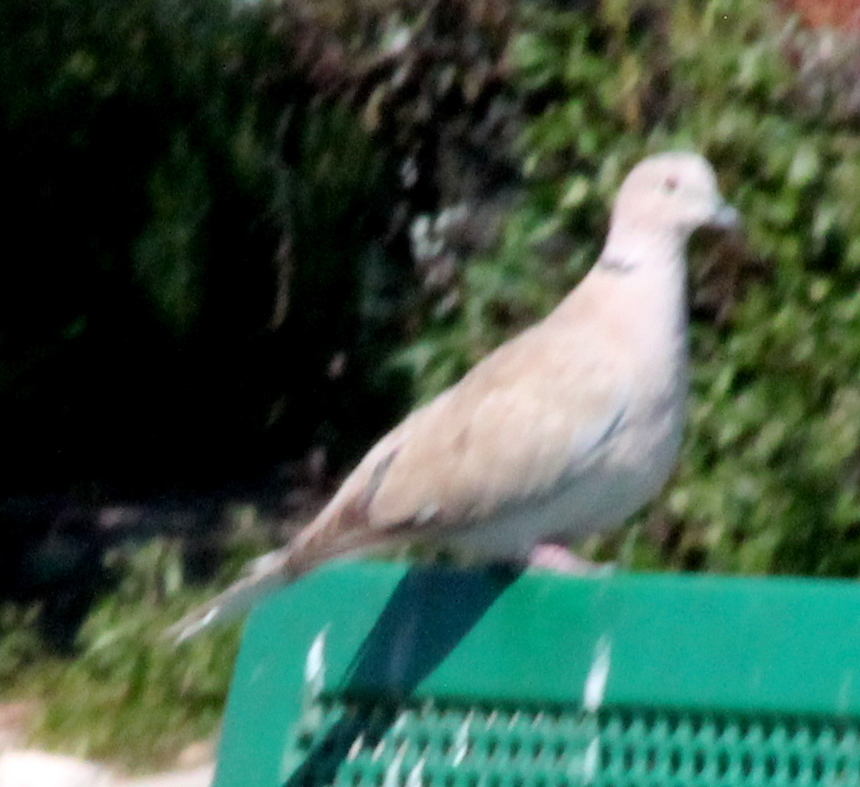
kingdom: Animalia
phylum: Chordata
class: Aves
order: Columbiformes
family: Columbidae
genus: Streptopelia
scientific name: Streptopelia decaocto
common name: Eurasian collared dove
